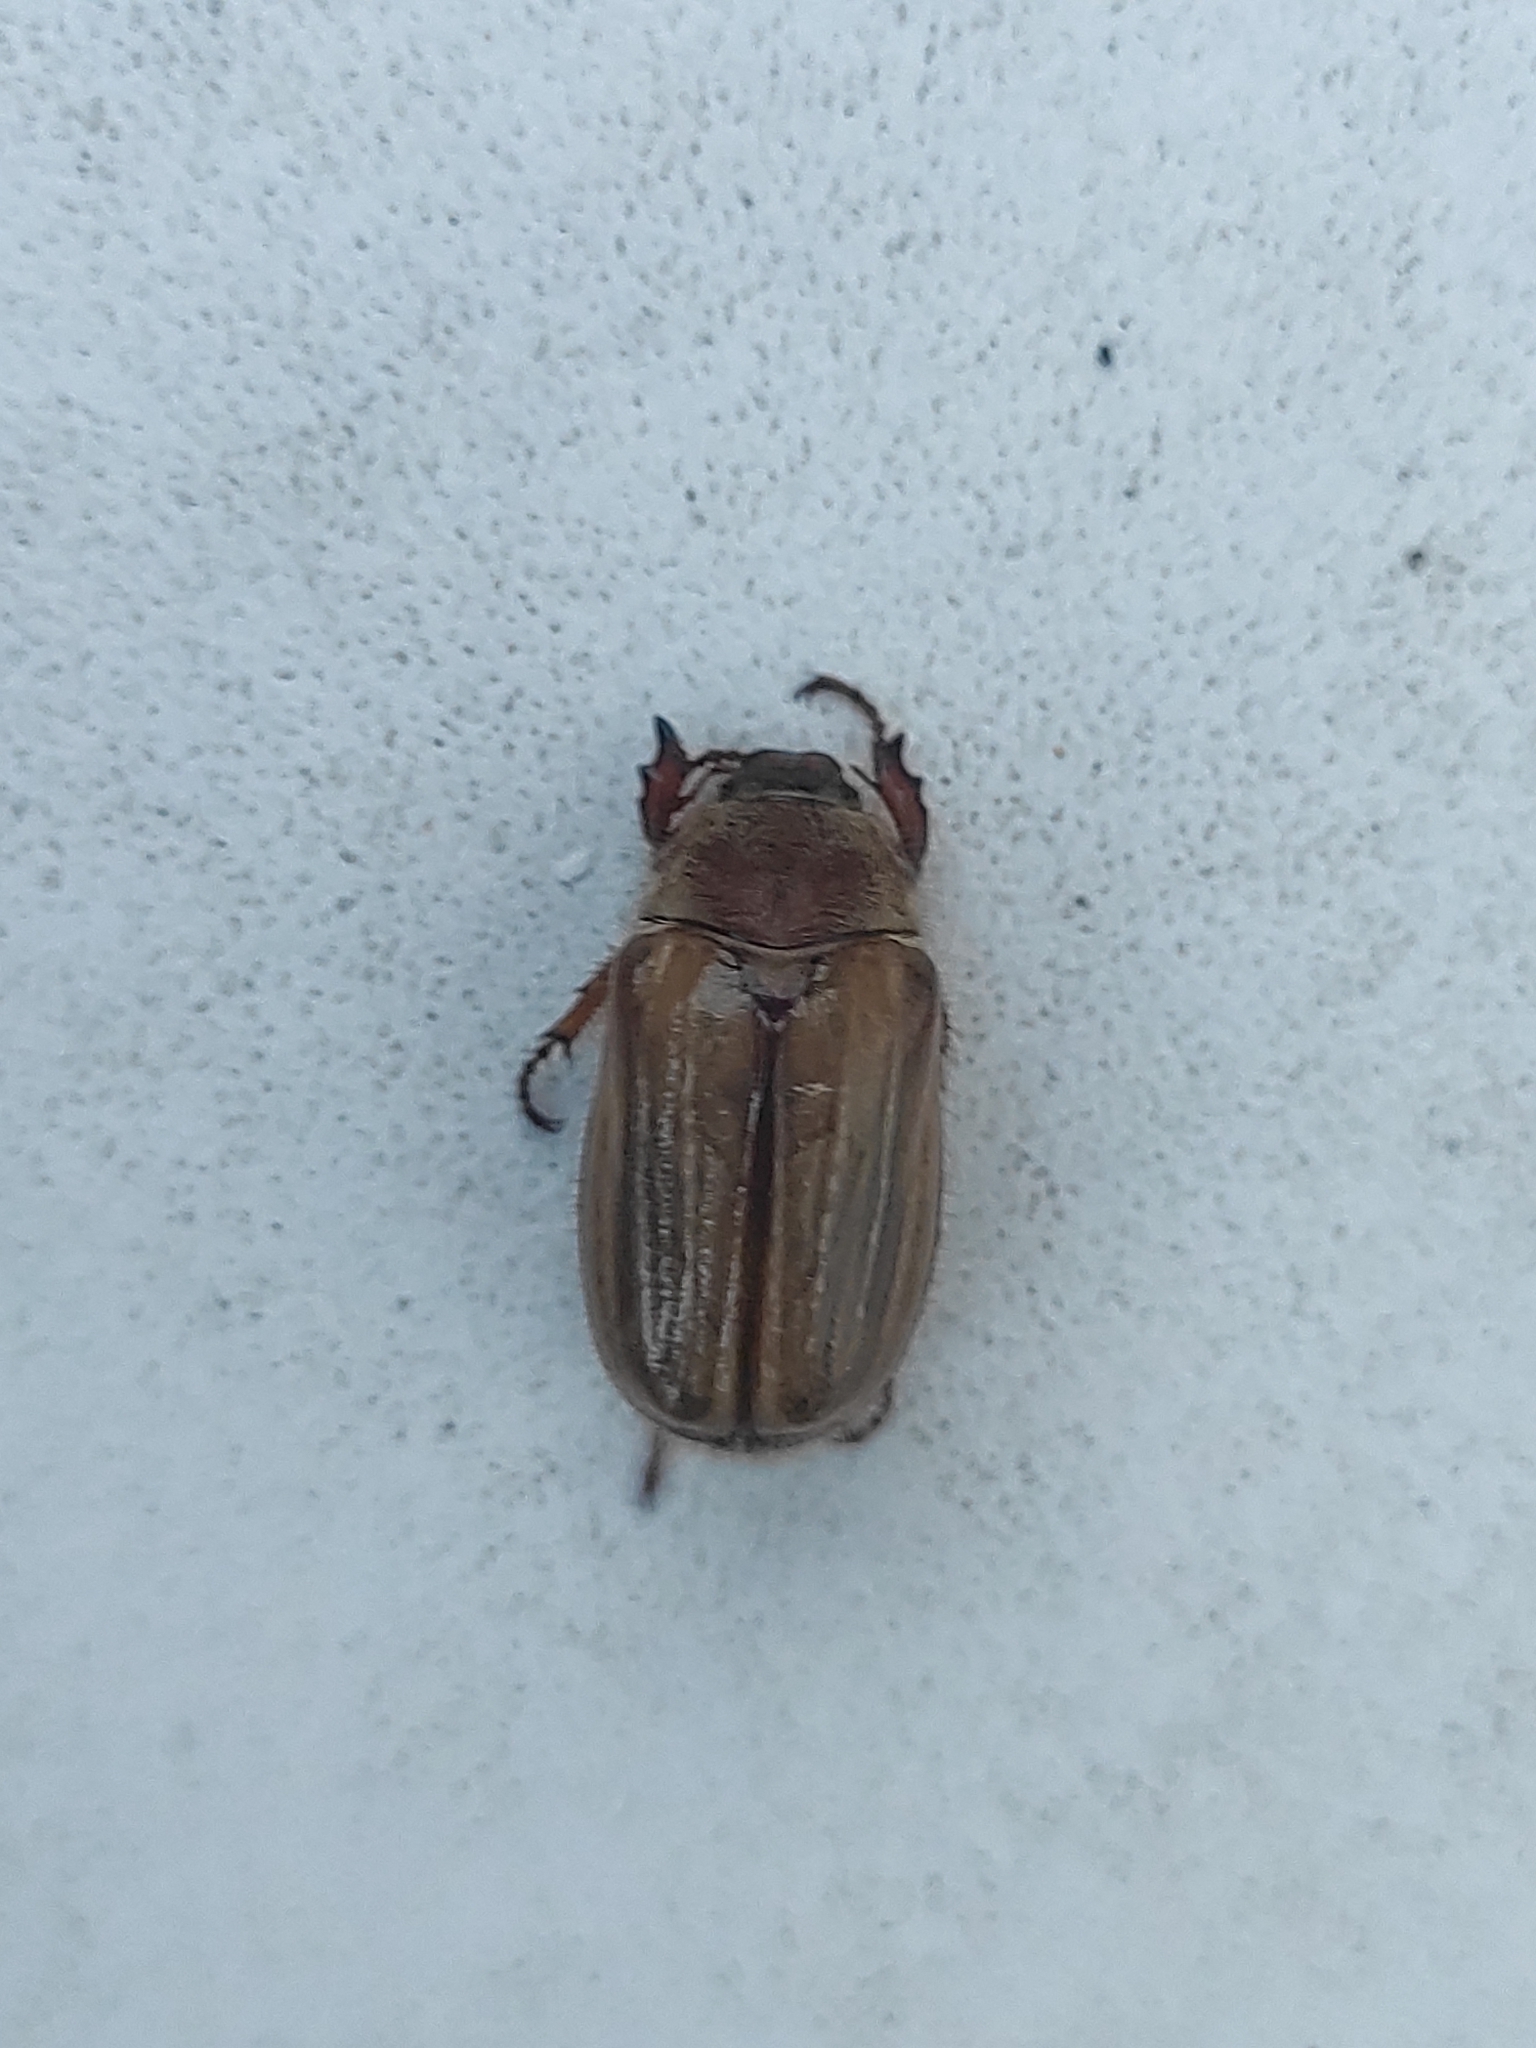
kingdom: Animalia
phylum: Arthropoda
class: Insecta
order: Coleoptera
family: Scarabaeidae
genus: Amphimallon
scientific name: Amphimallon solstitiale
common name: Summer chafer
